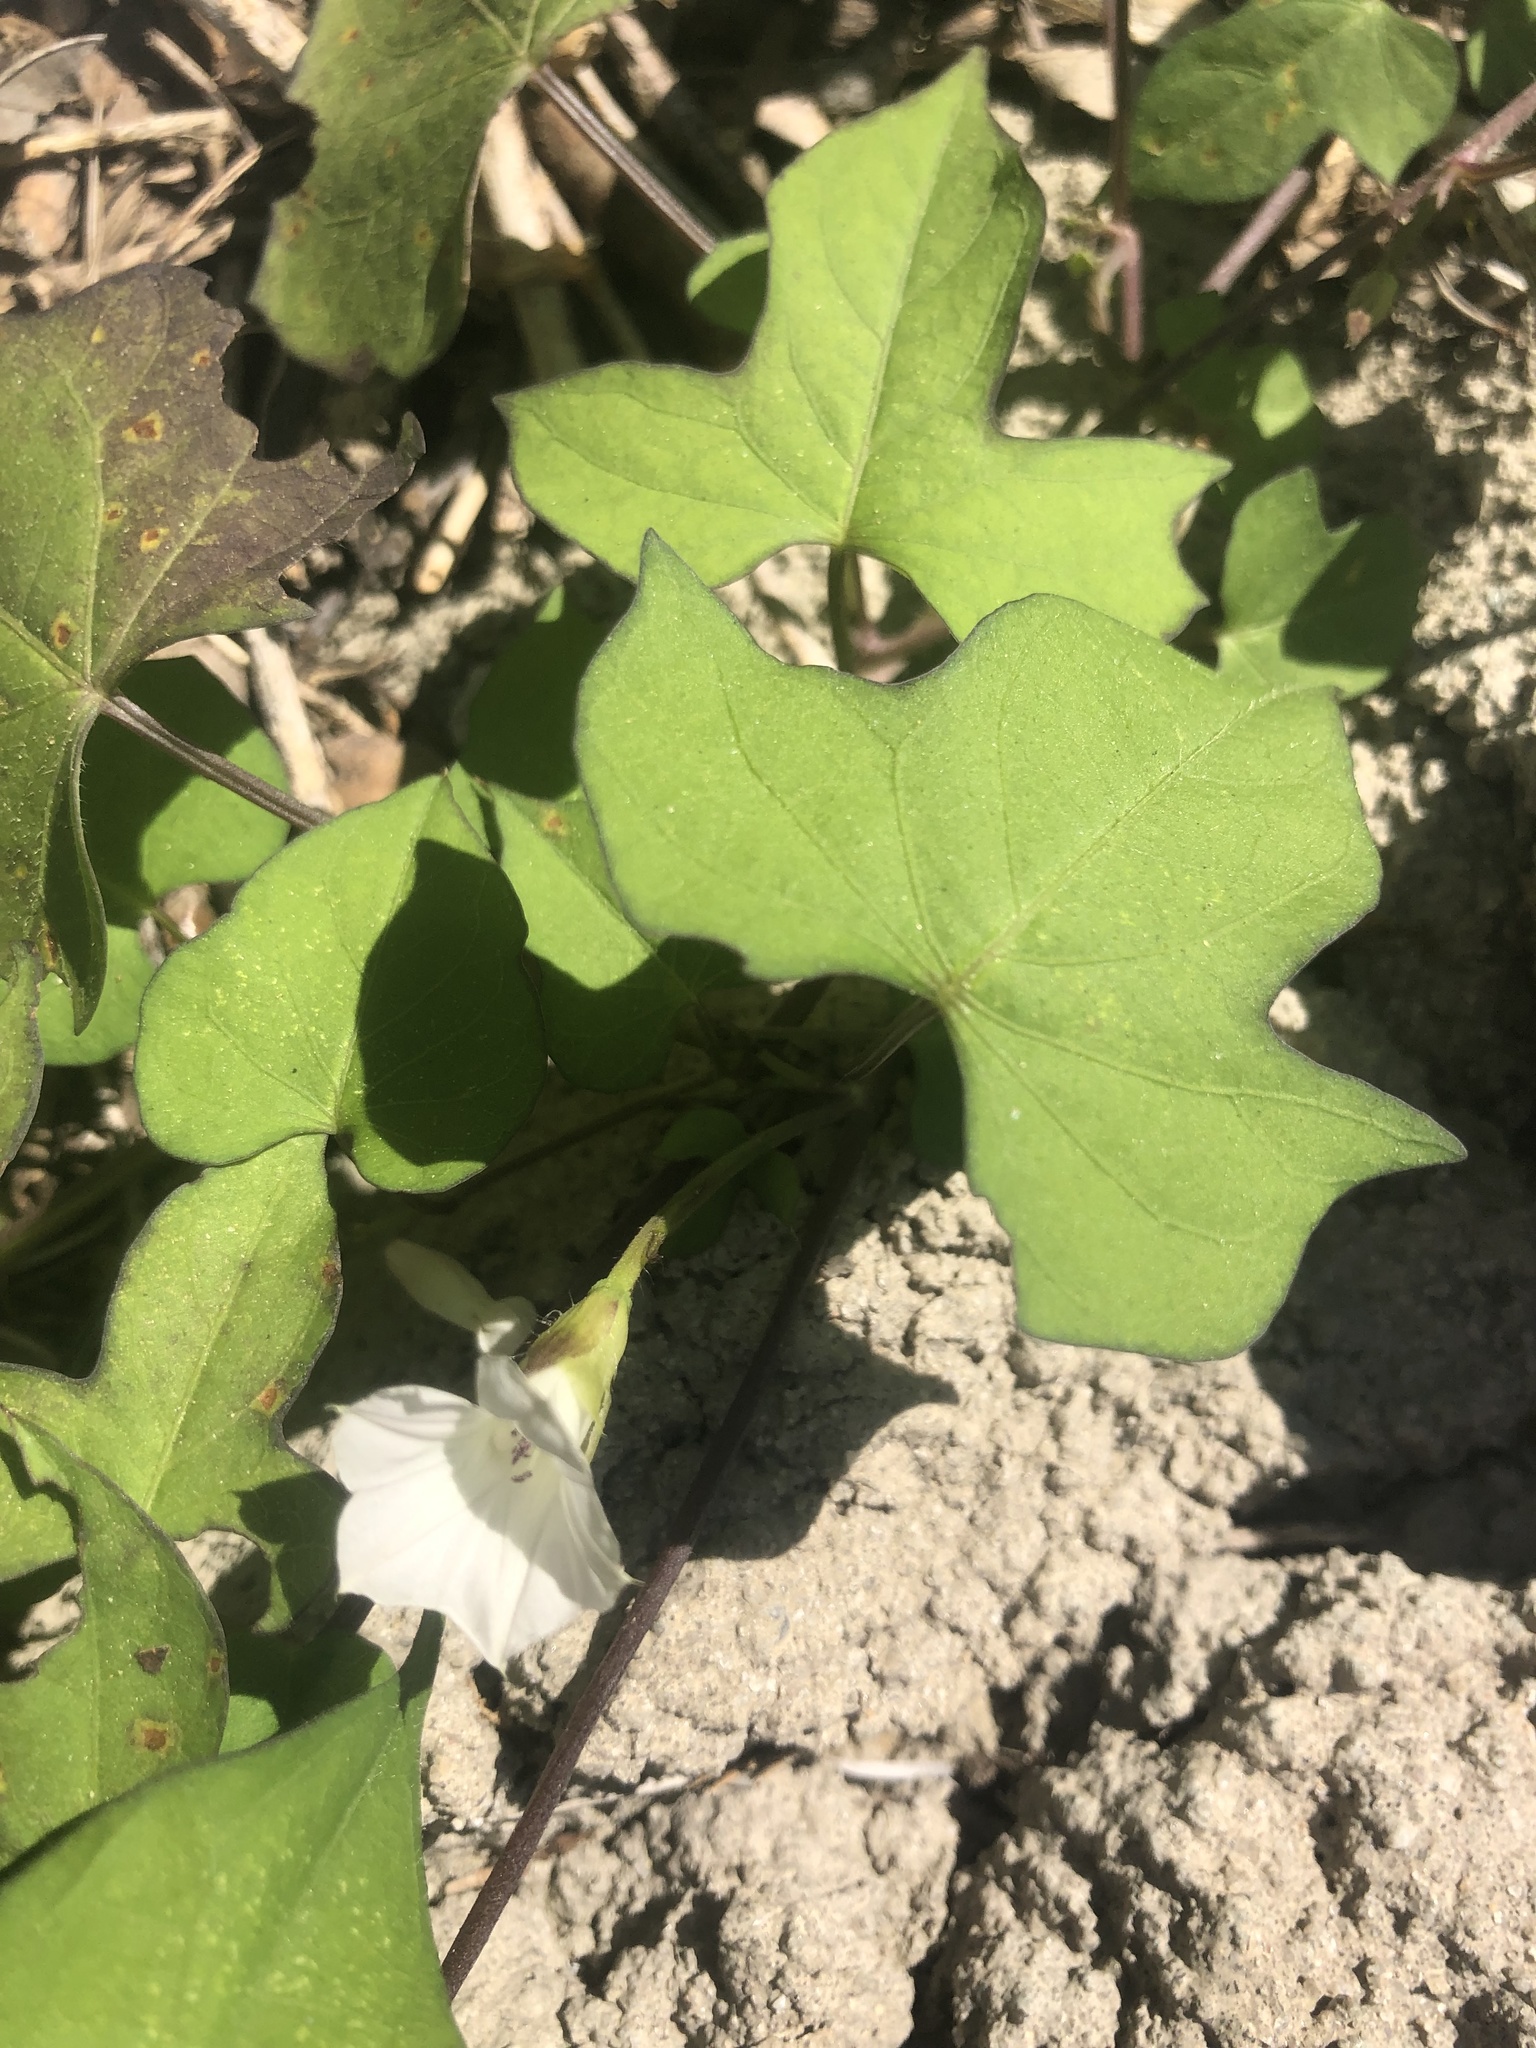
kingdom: Plantae
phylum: Tracheophyta
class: Magnoliopsida
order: Solanales
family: Convolvulaceae
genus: Ipomoea
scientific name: Ipomoea lacunosa
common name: White morning-glory
